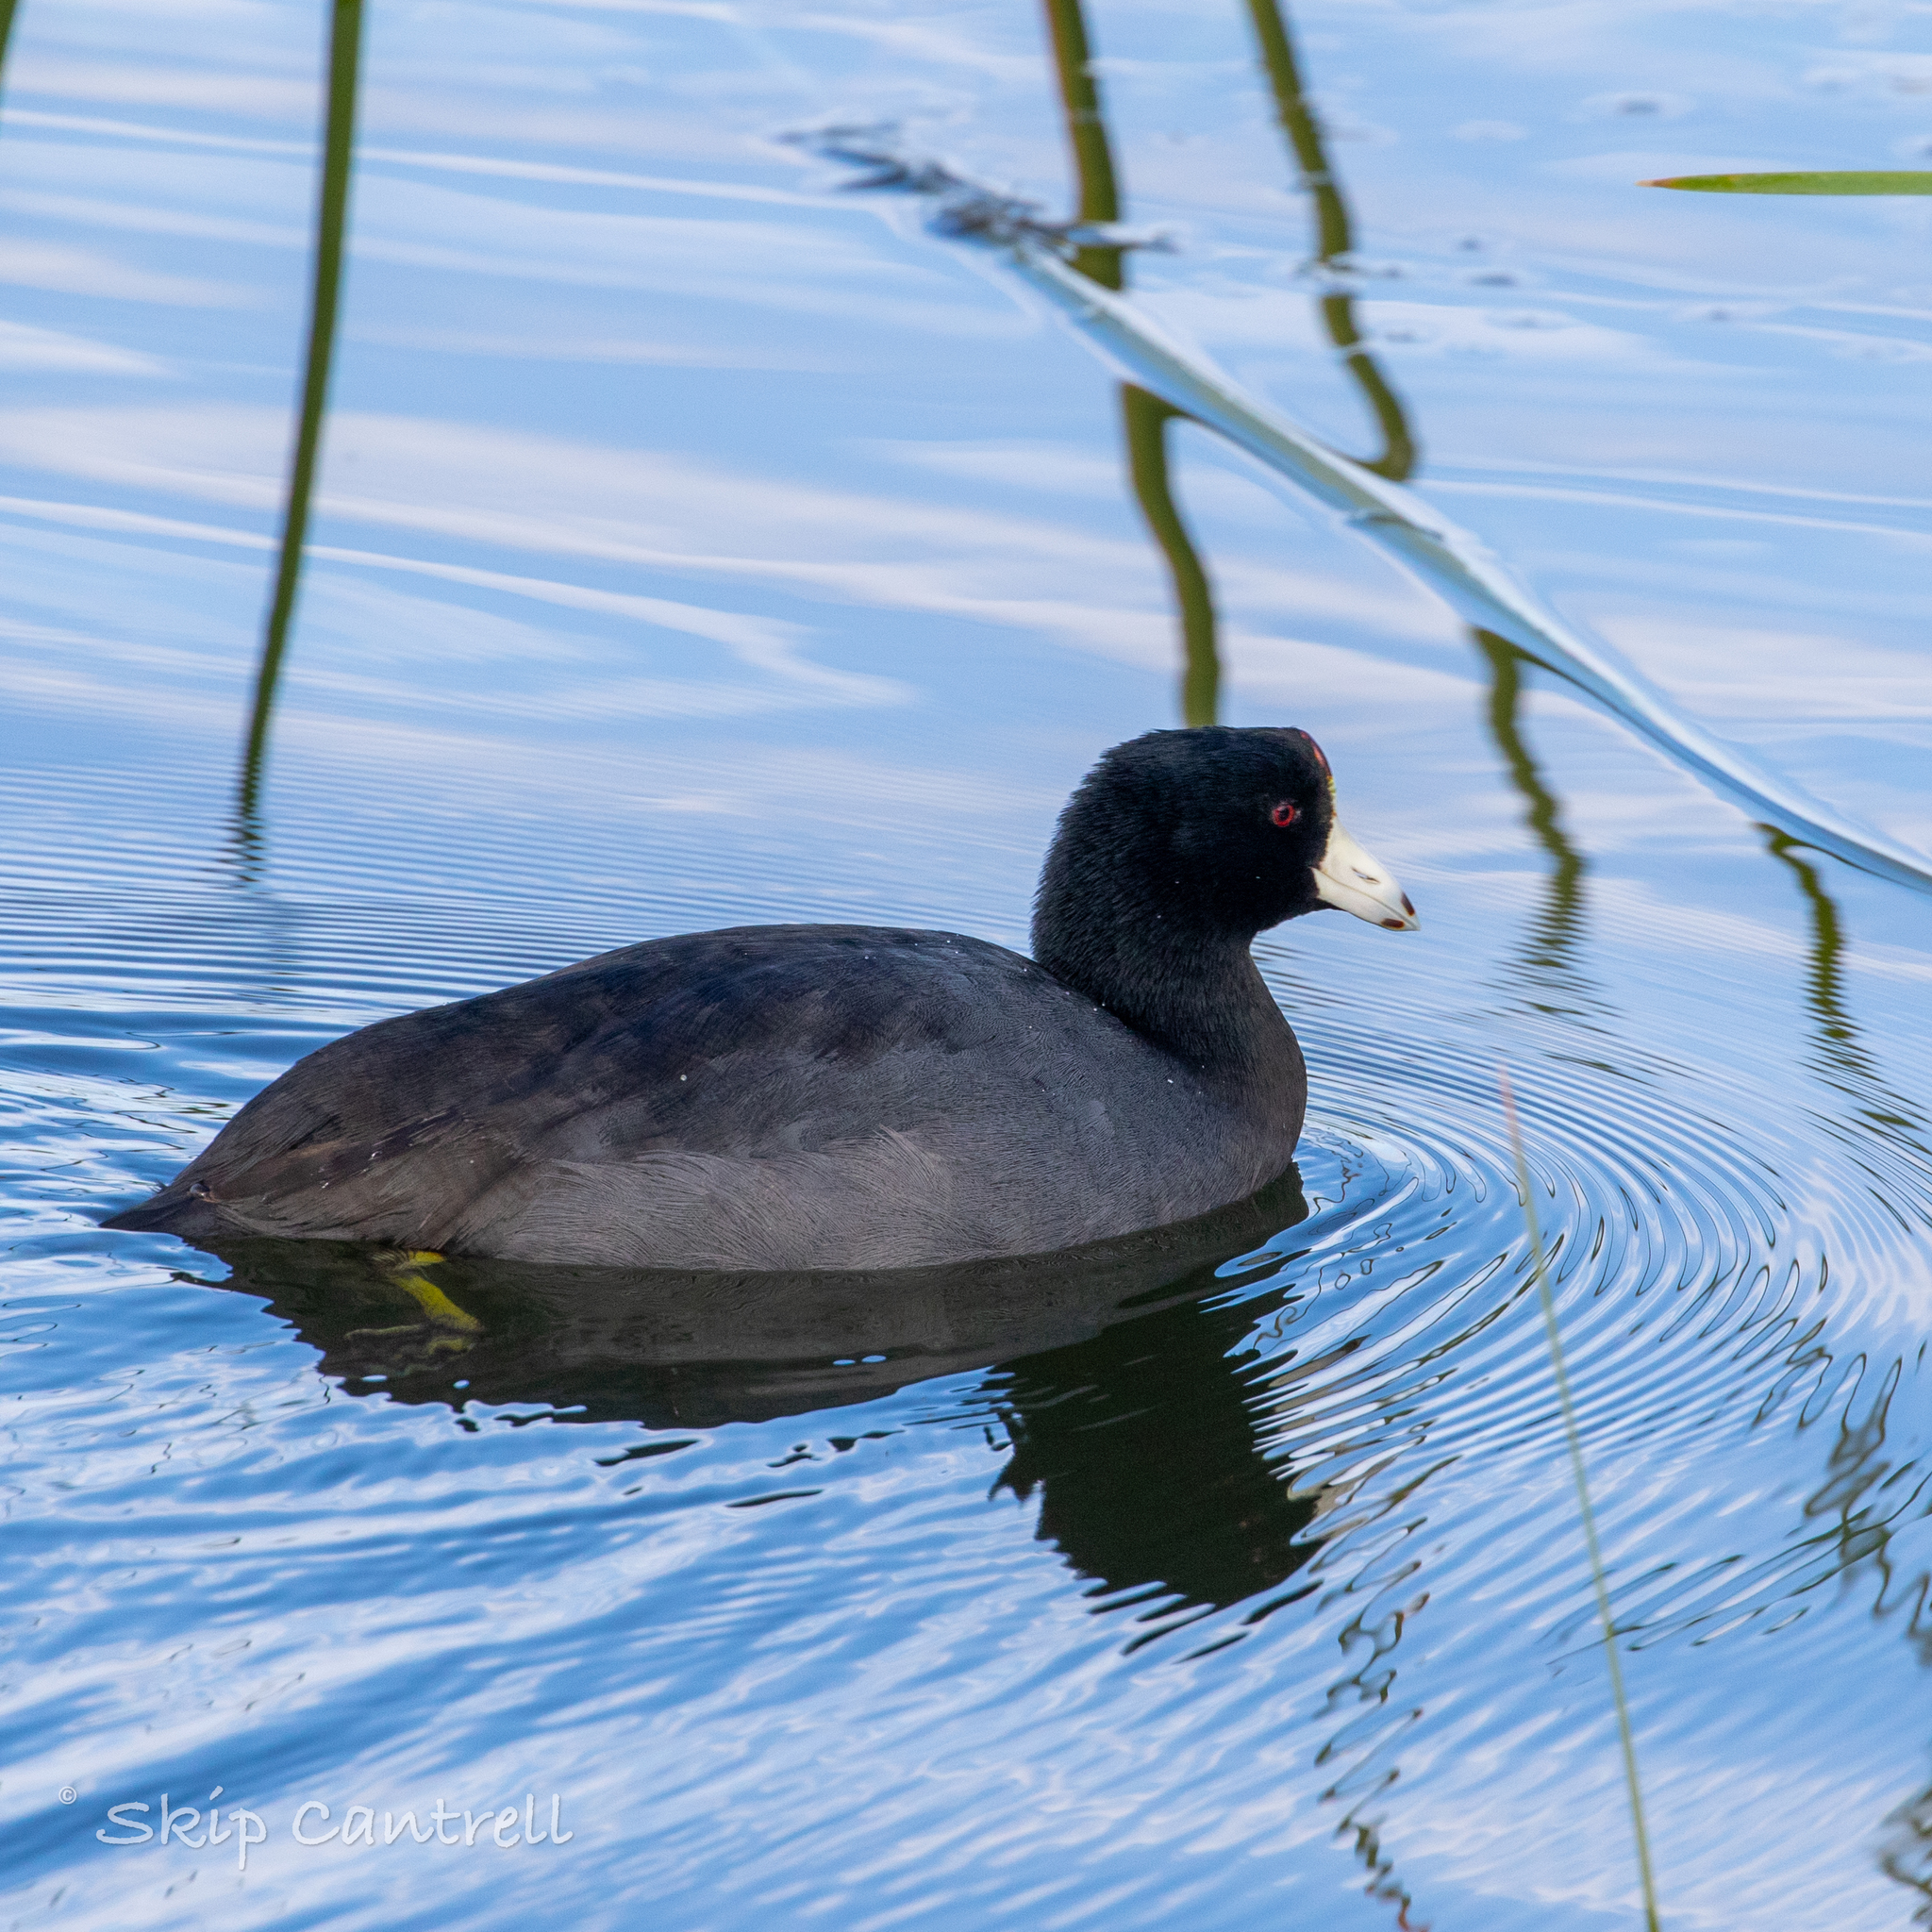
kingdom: Animalia
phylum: Chordata
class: Aves
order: Gruiformes
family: Rallidae
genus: Fulica
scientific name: Fulica americana
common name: American coot
